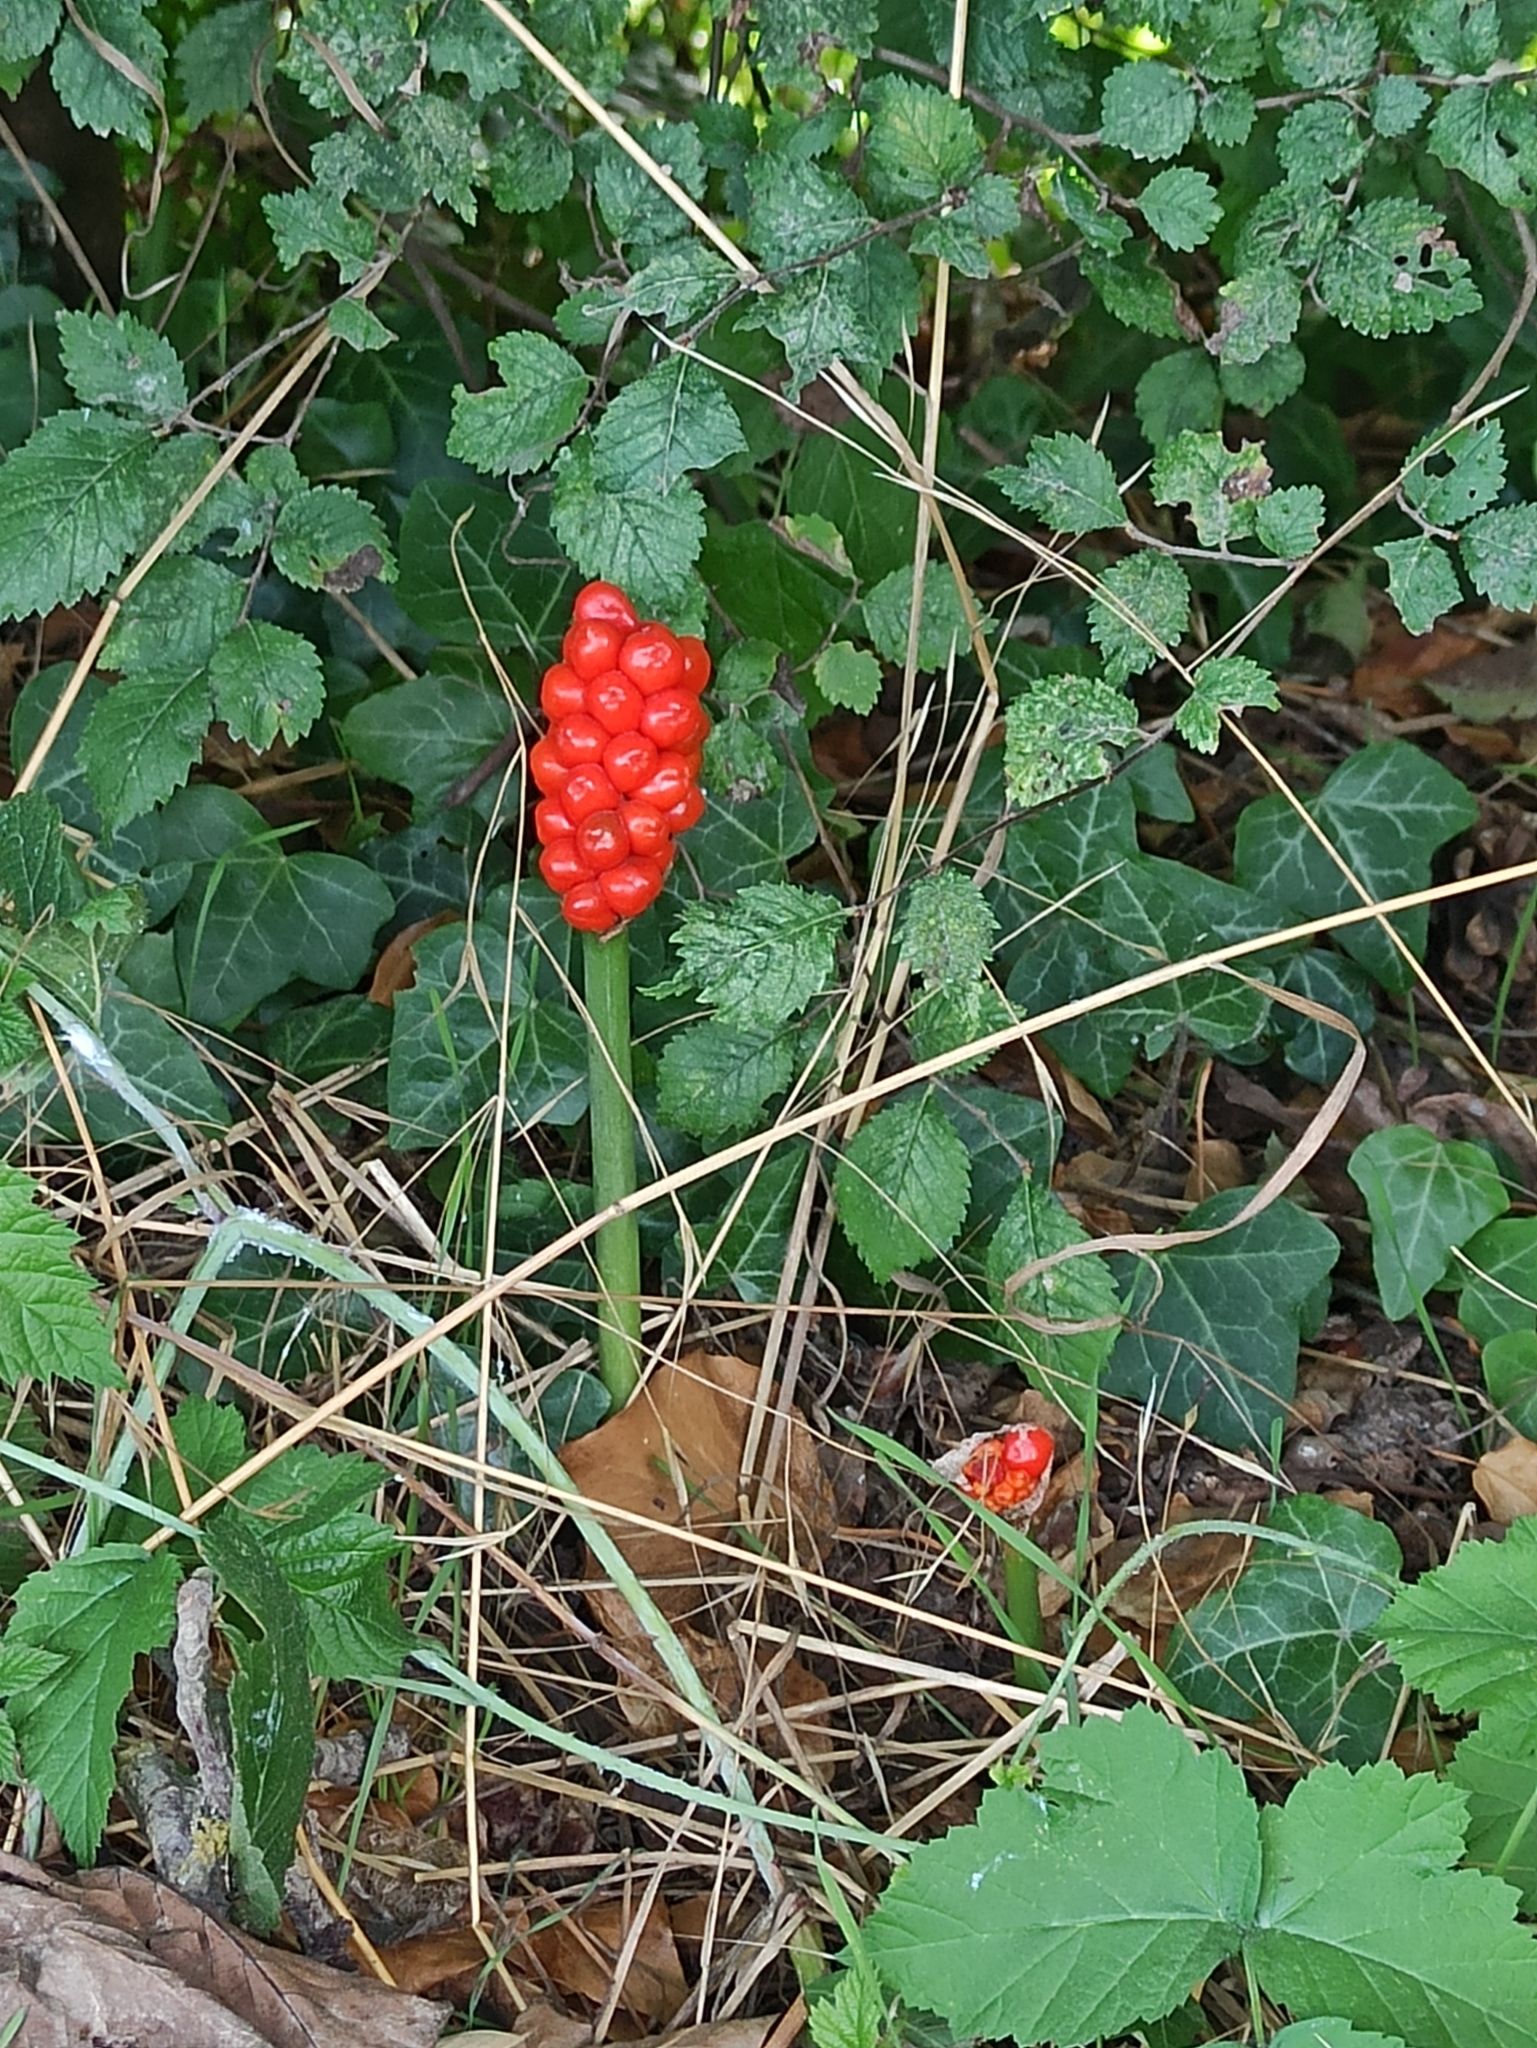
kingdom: Plantae
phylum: Tracheophyta
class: Liliopsida
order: Alismatales
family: Araceae
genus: Arum
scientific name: Arum maculatum
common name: Lords-and-ladies
